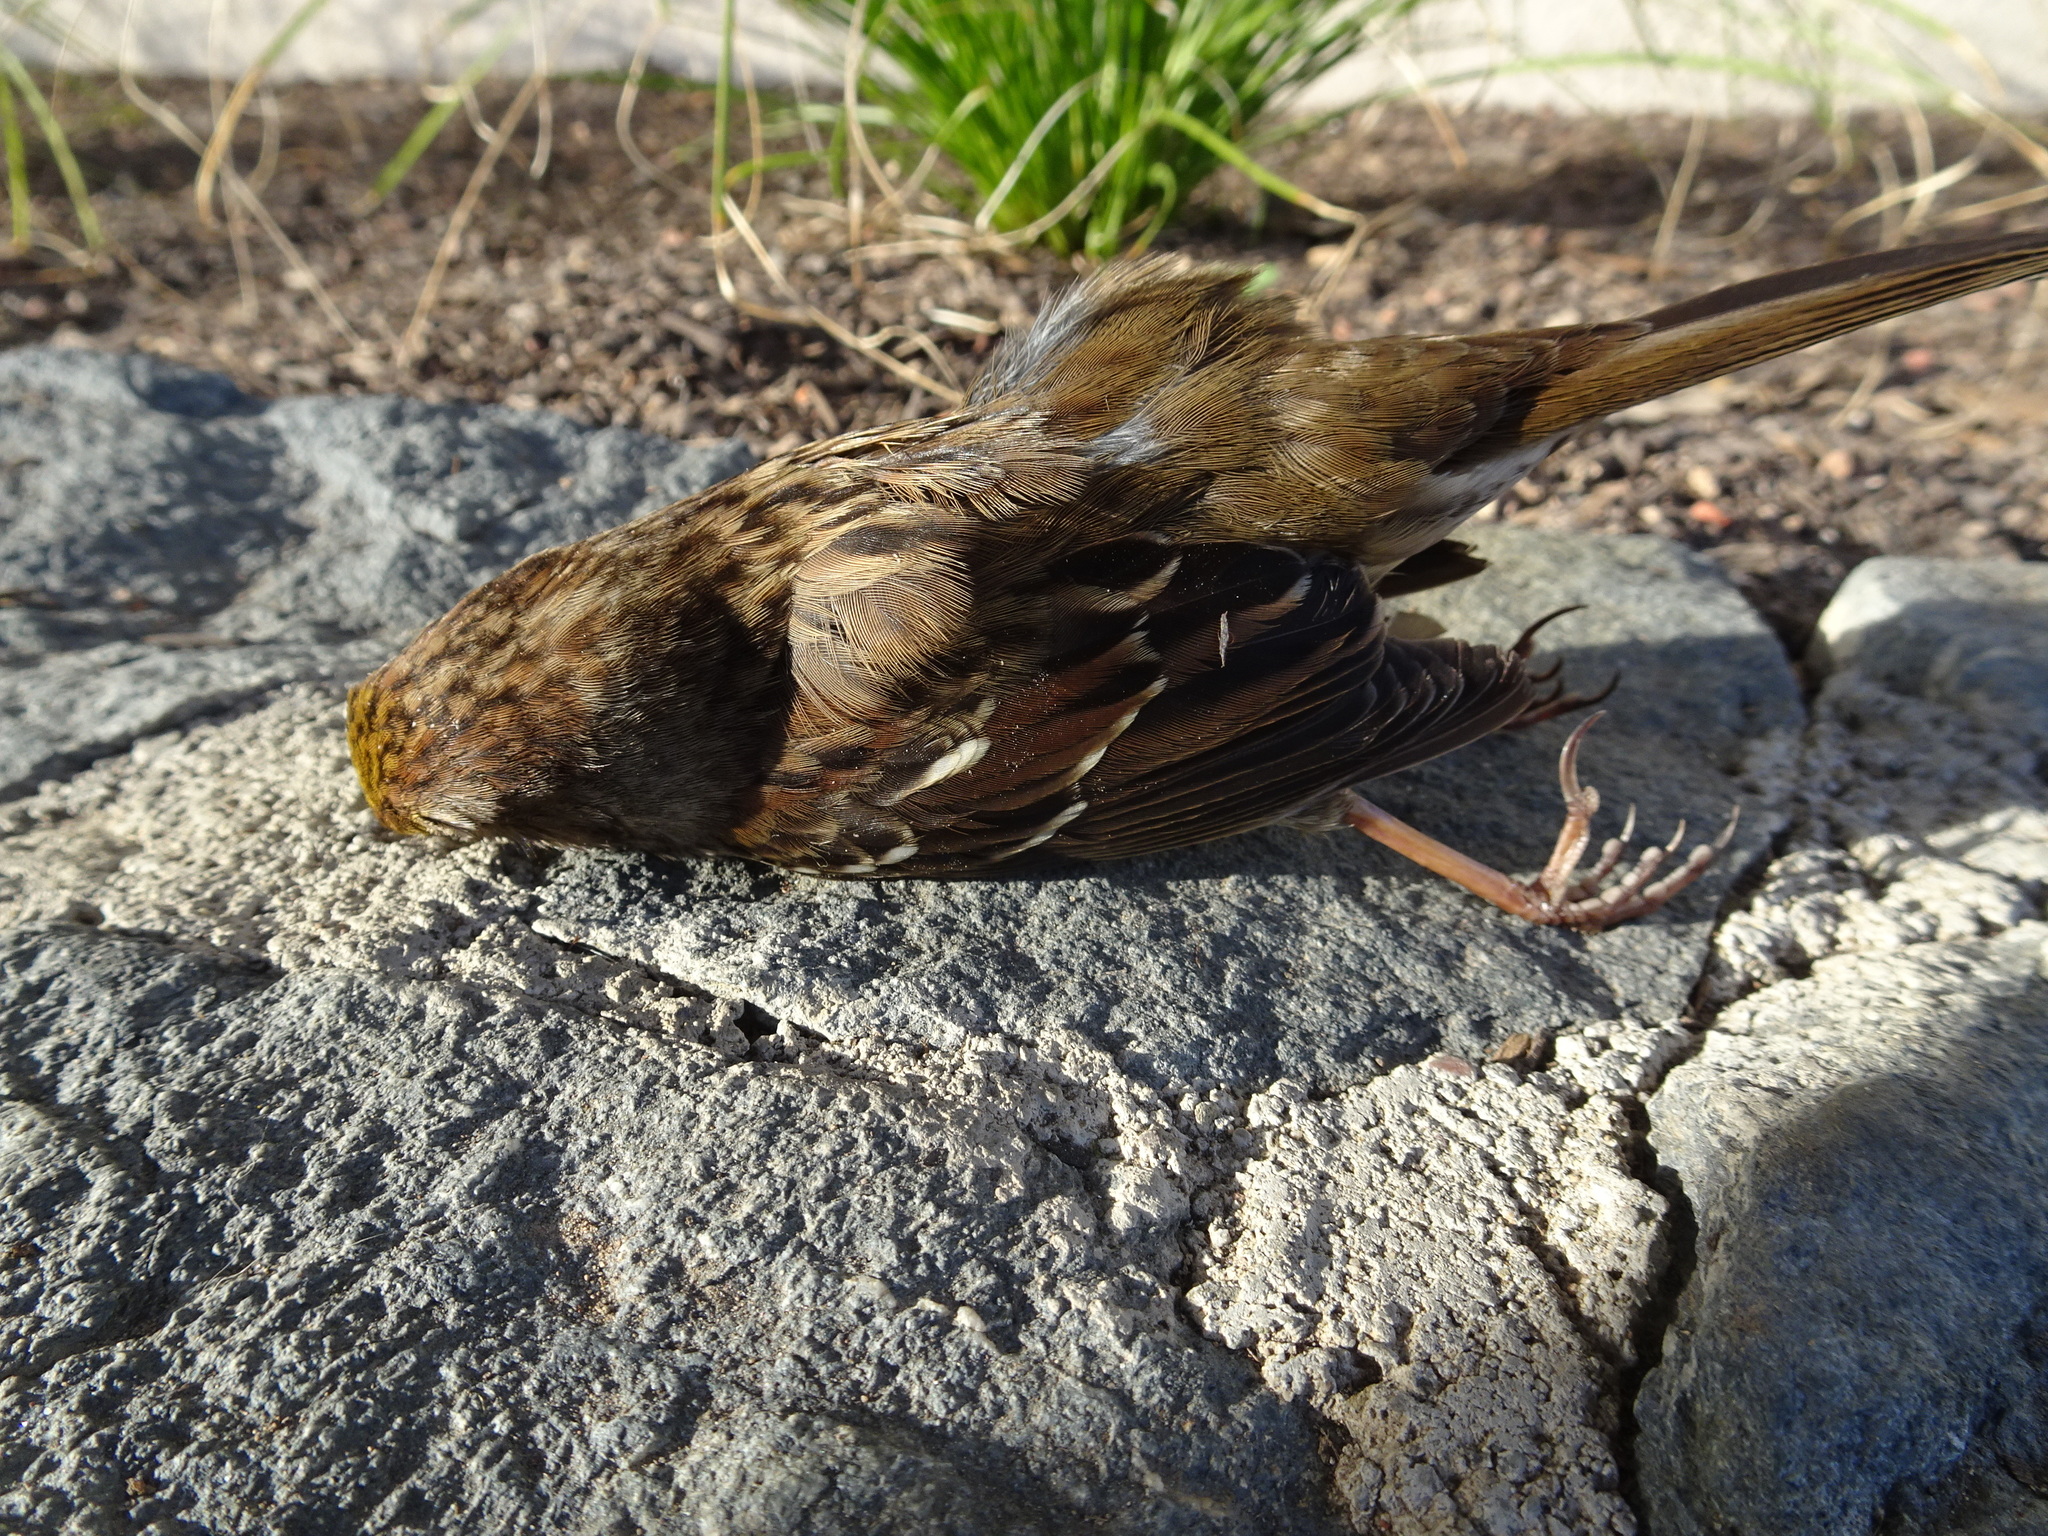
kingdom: Animalia
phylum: Chordata
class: Aves
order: Passeriformes
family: Passerellidae
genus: Zonotrichia
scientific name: Zonotrichia atricapilla
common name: Golden-crowned sparrow
